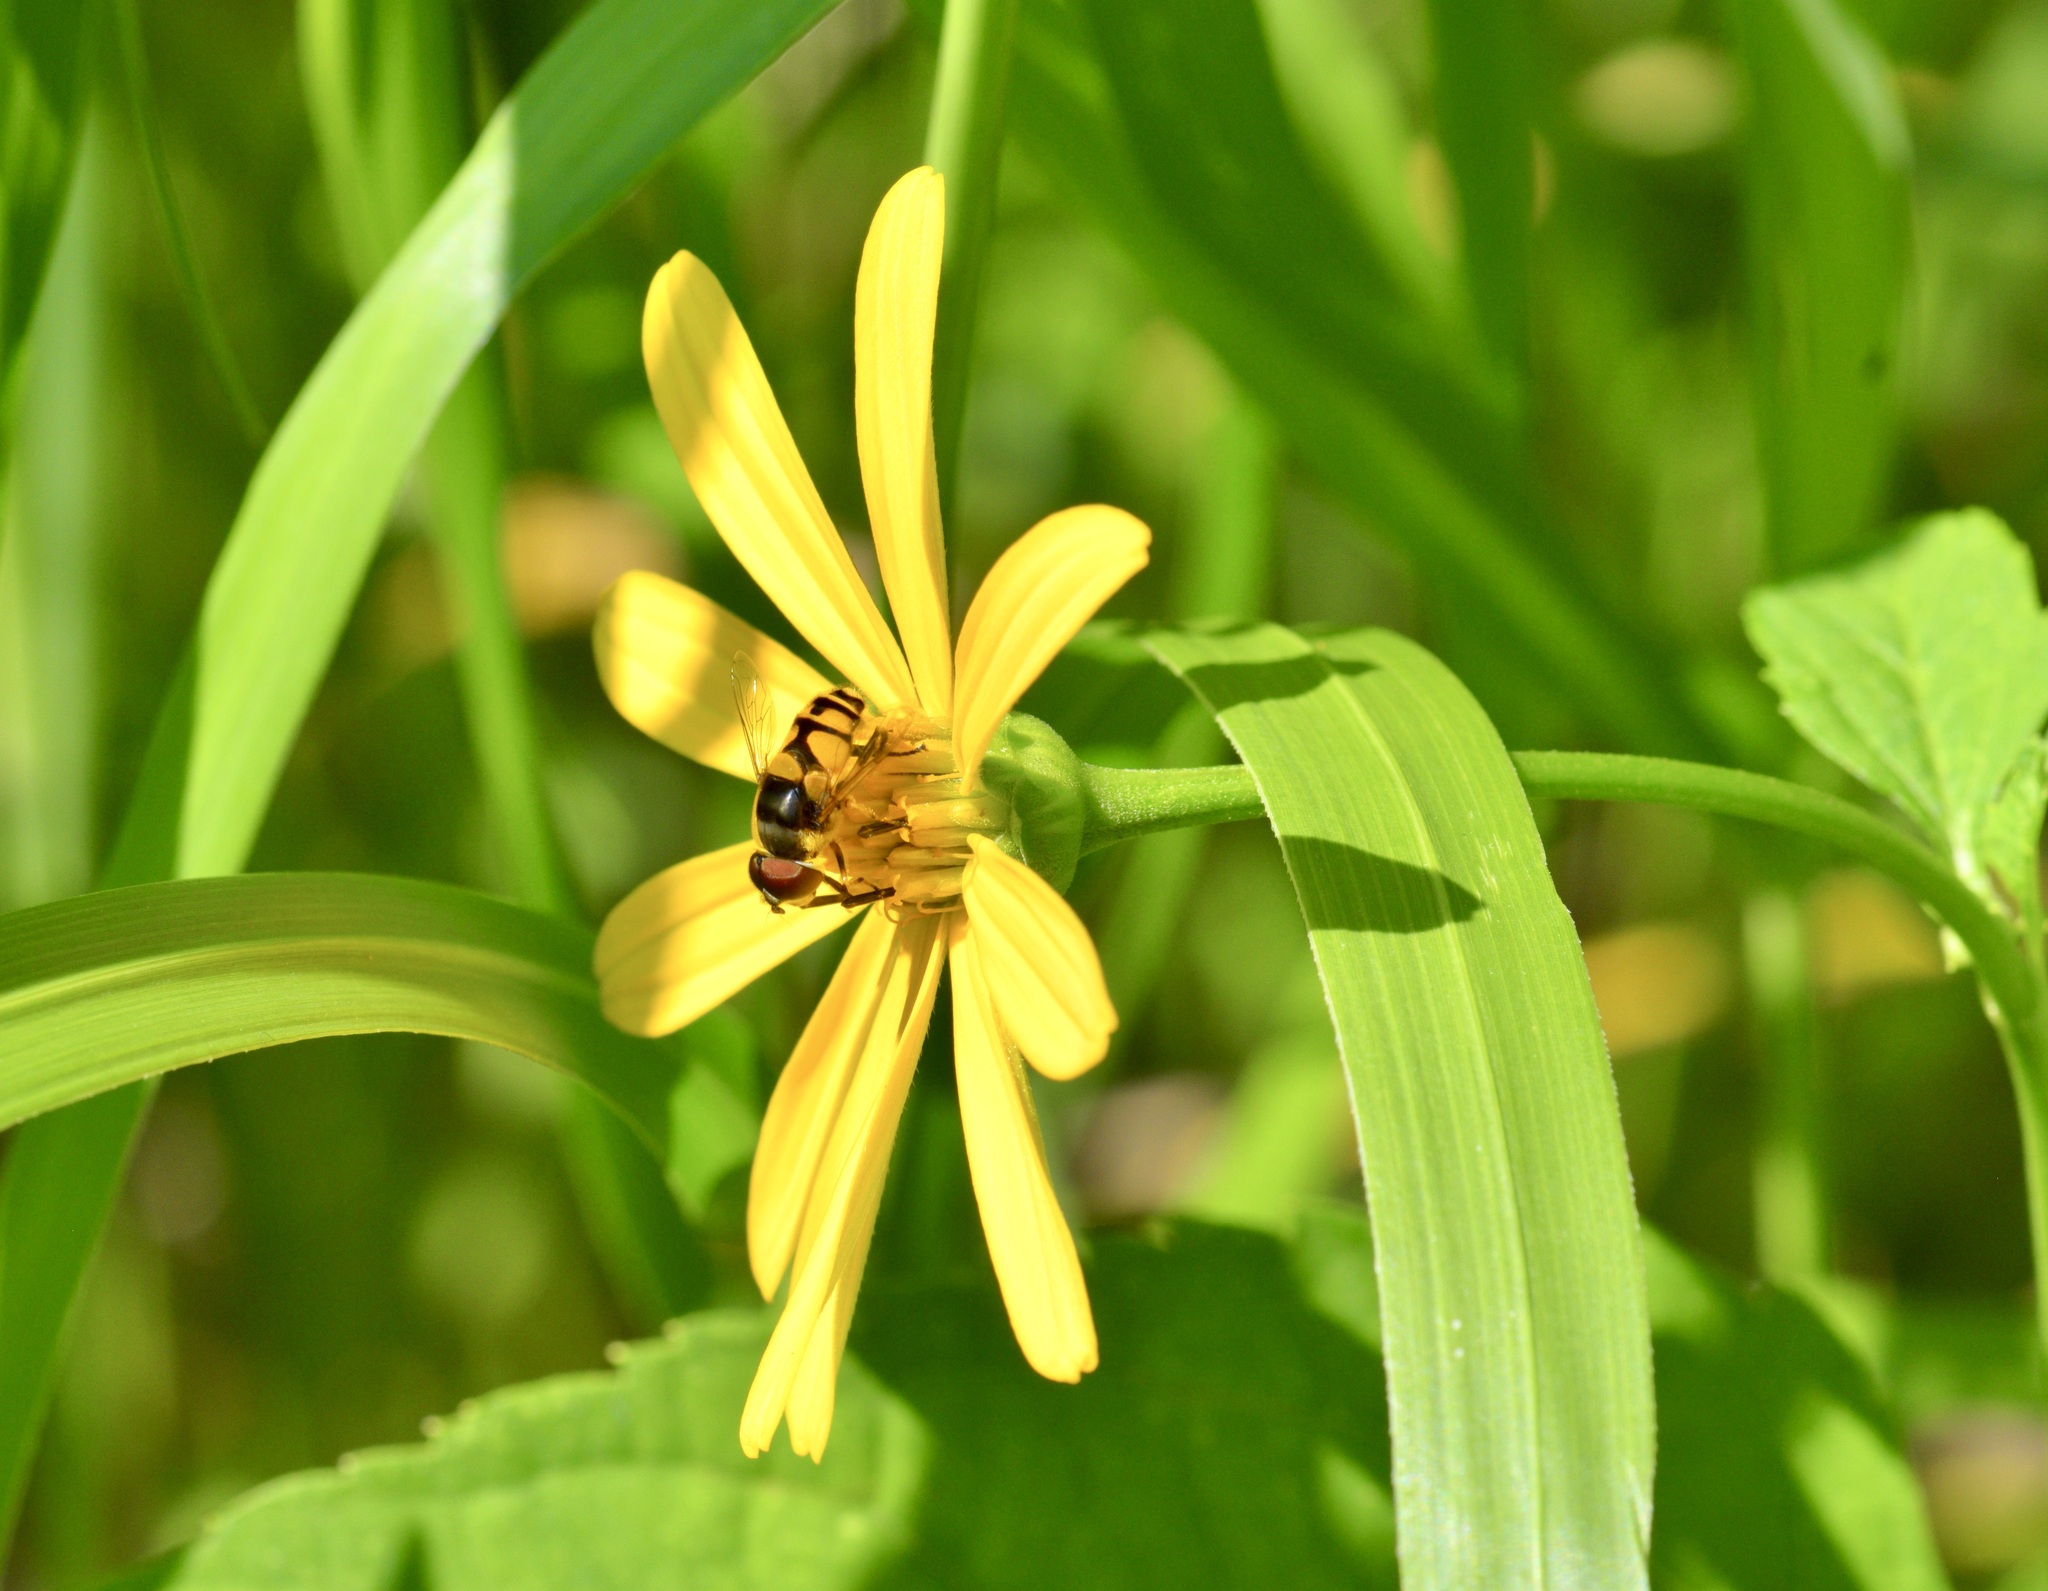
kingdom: Animalia
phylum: Arthropoda
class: Insecta
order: Diptera
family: Syrphidae
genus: Eristalis
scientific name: Eristalis transversa
